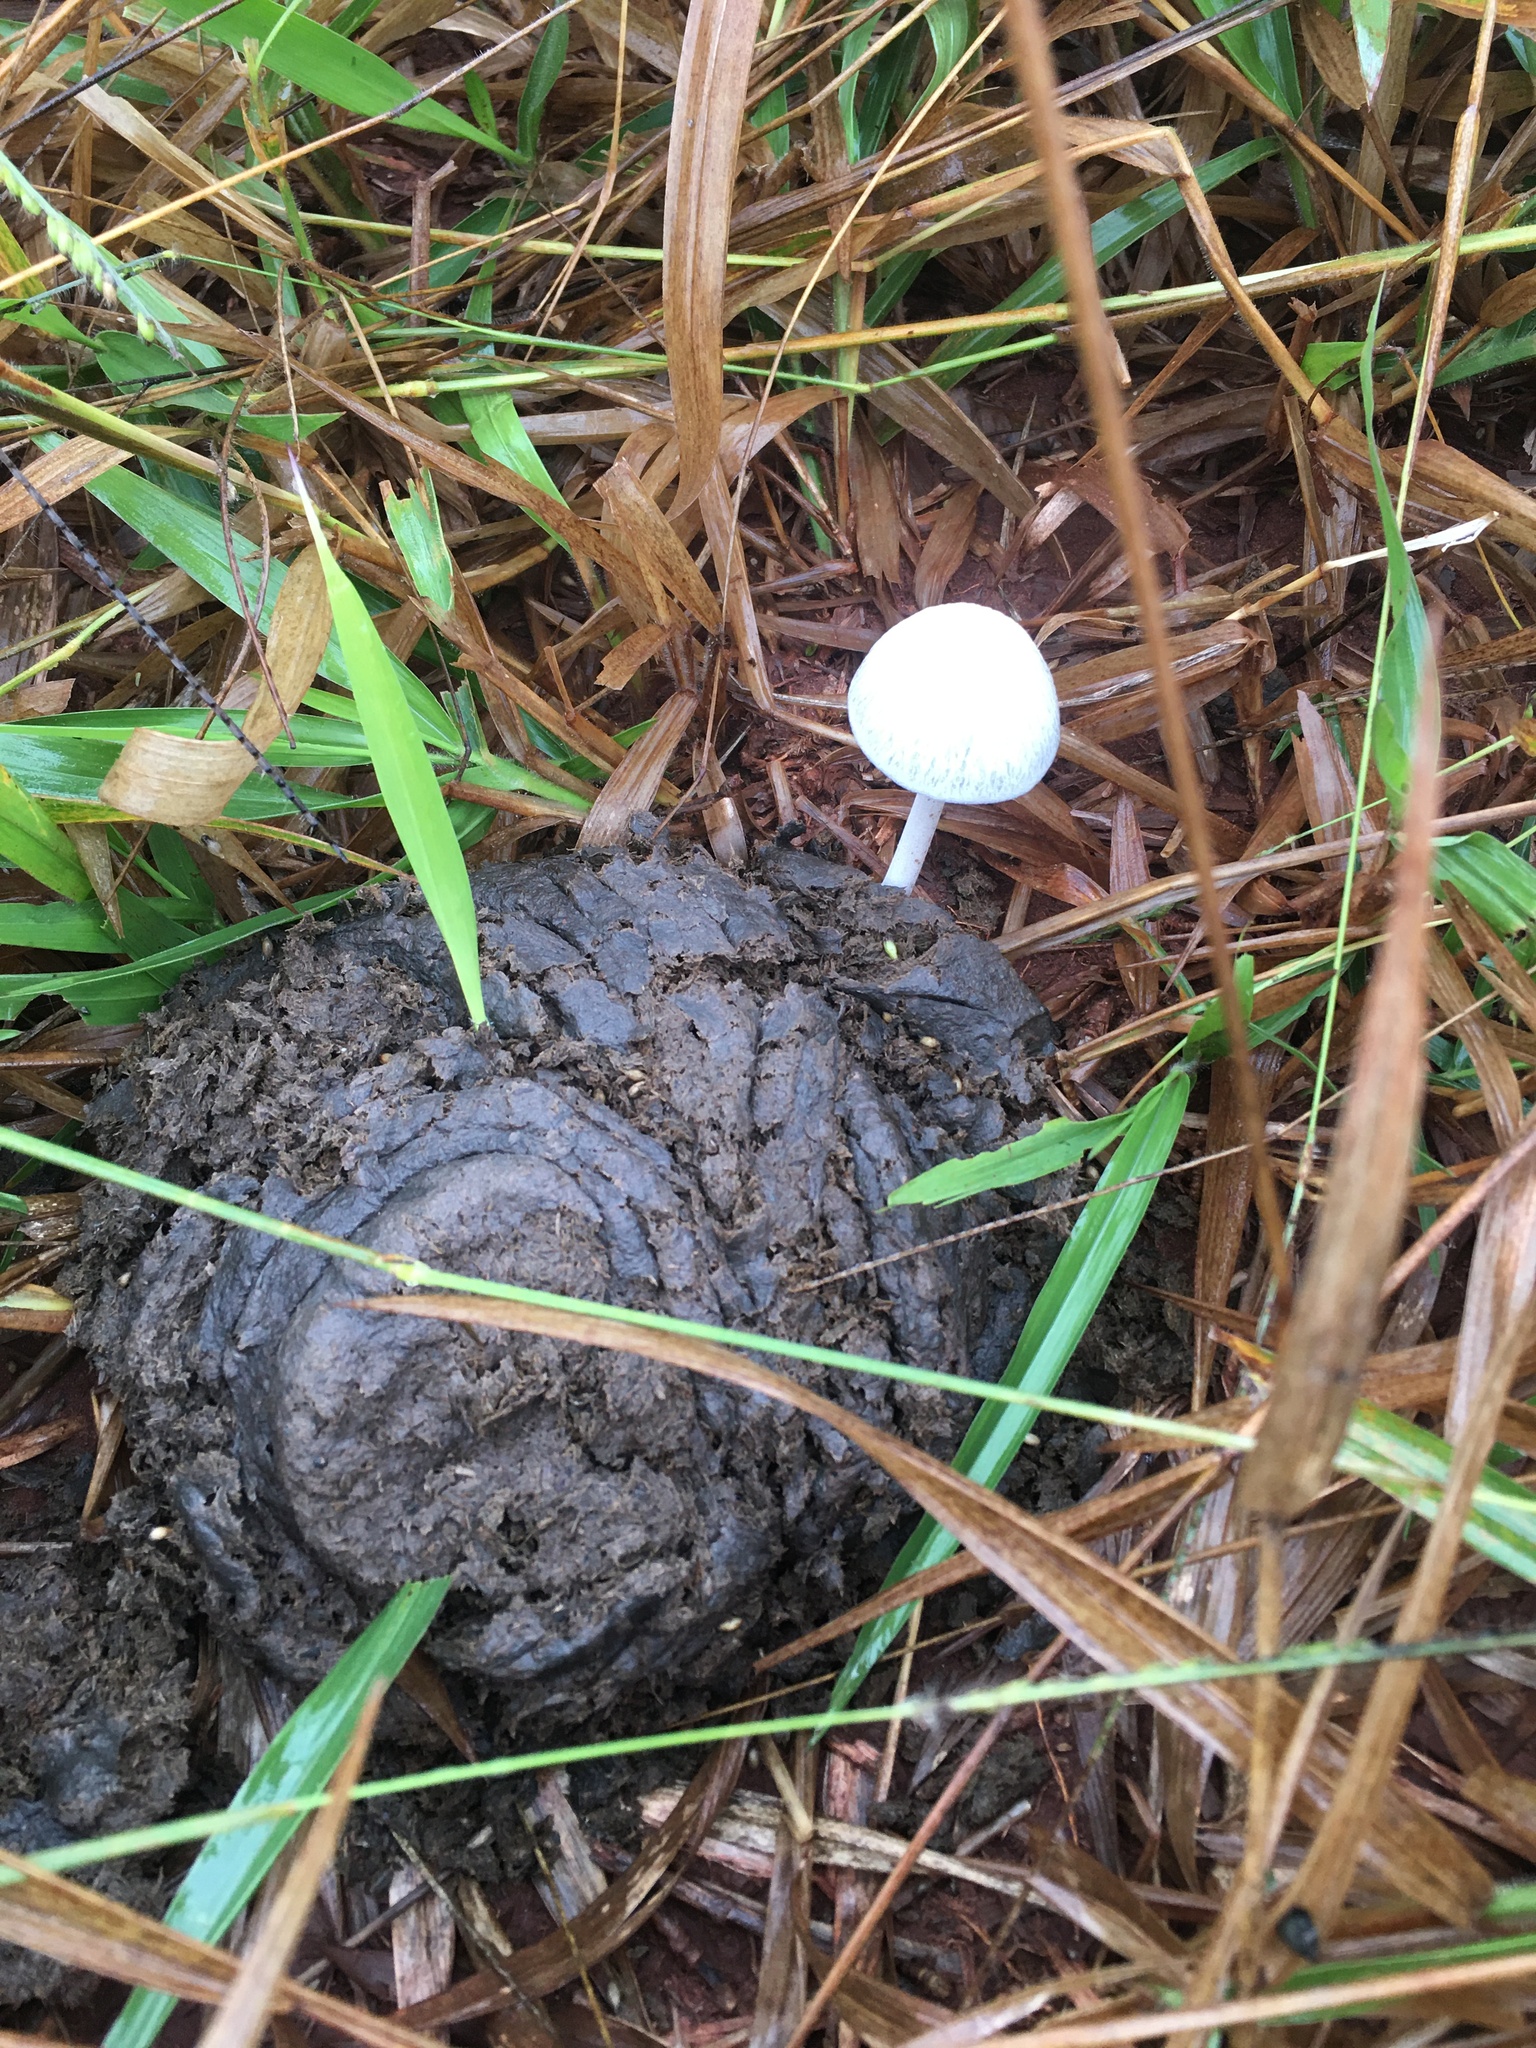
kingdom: Fungi
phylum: Basidiomycota
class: Agaricomycetes
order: Agaricales
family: Bolbitiaceae
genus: Panaeolus
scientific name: Panaeolus antillarum
